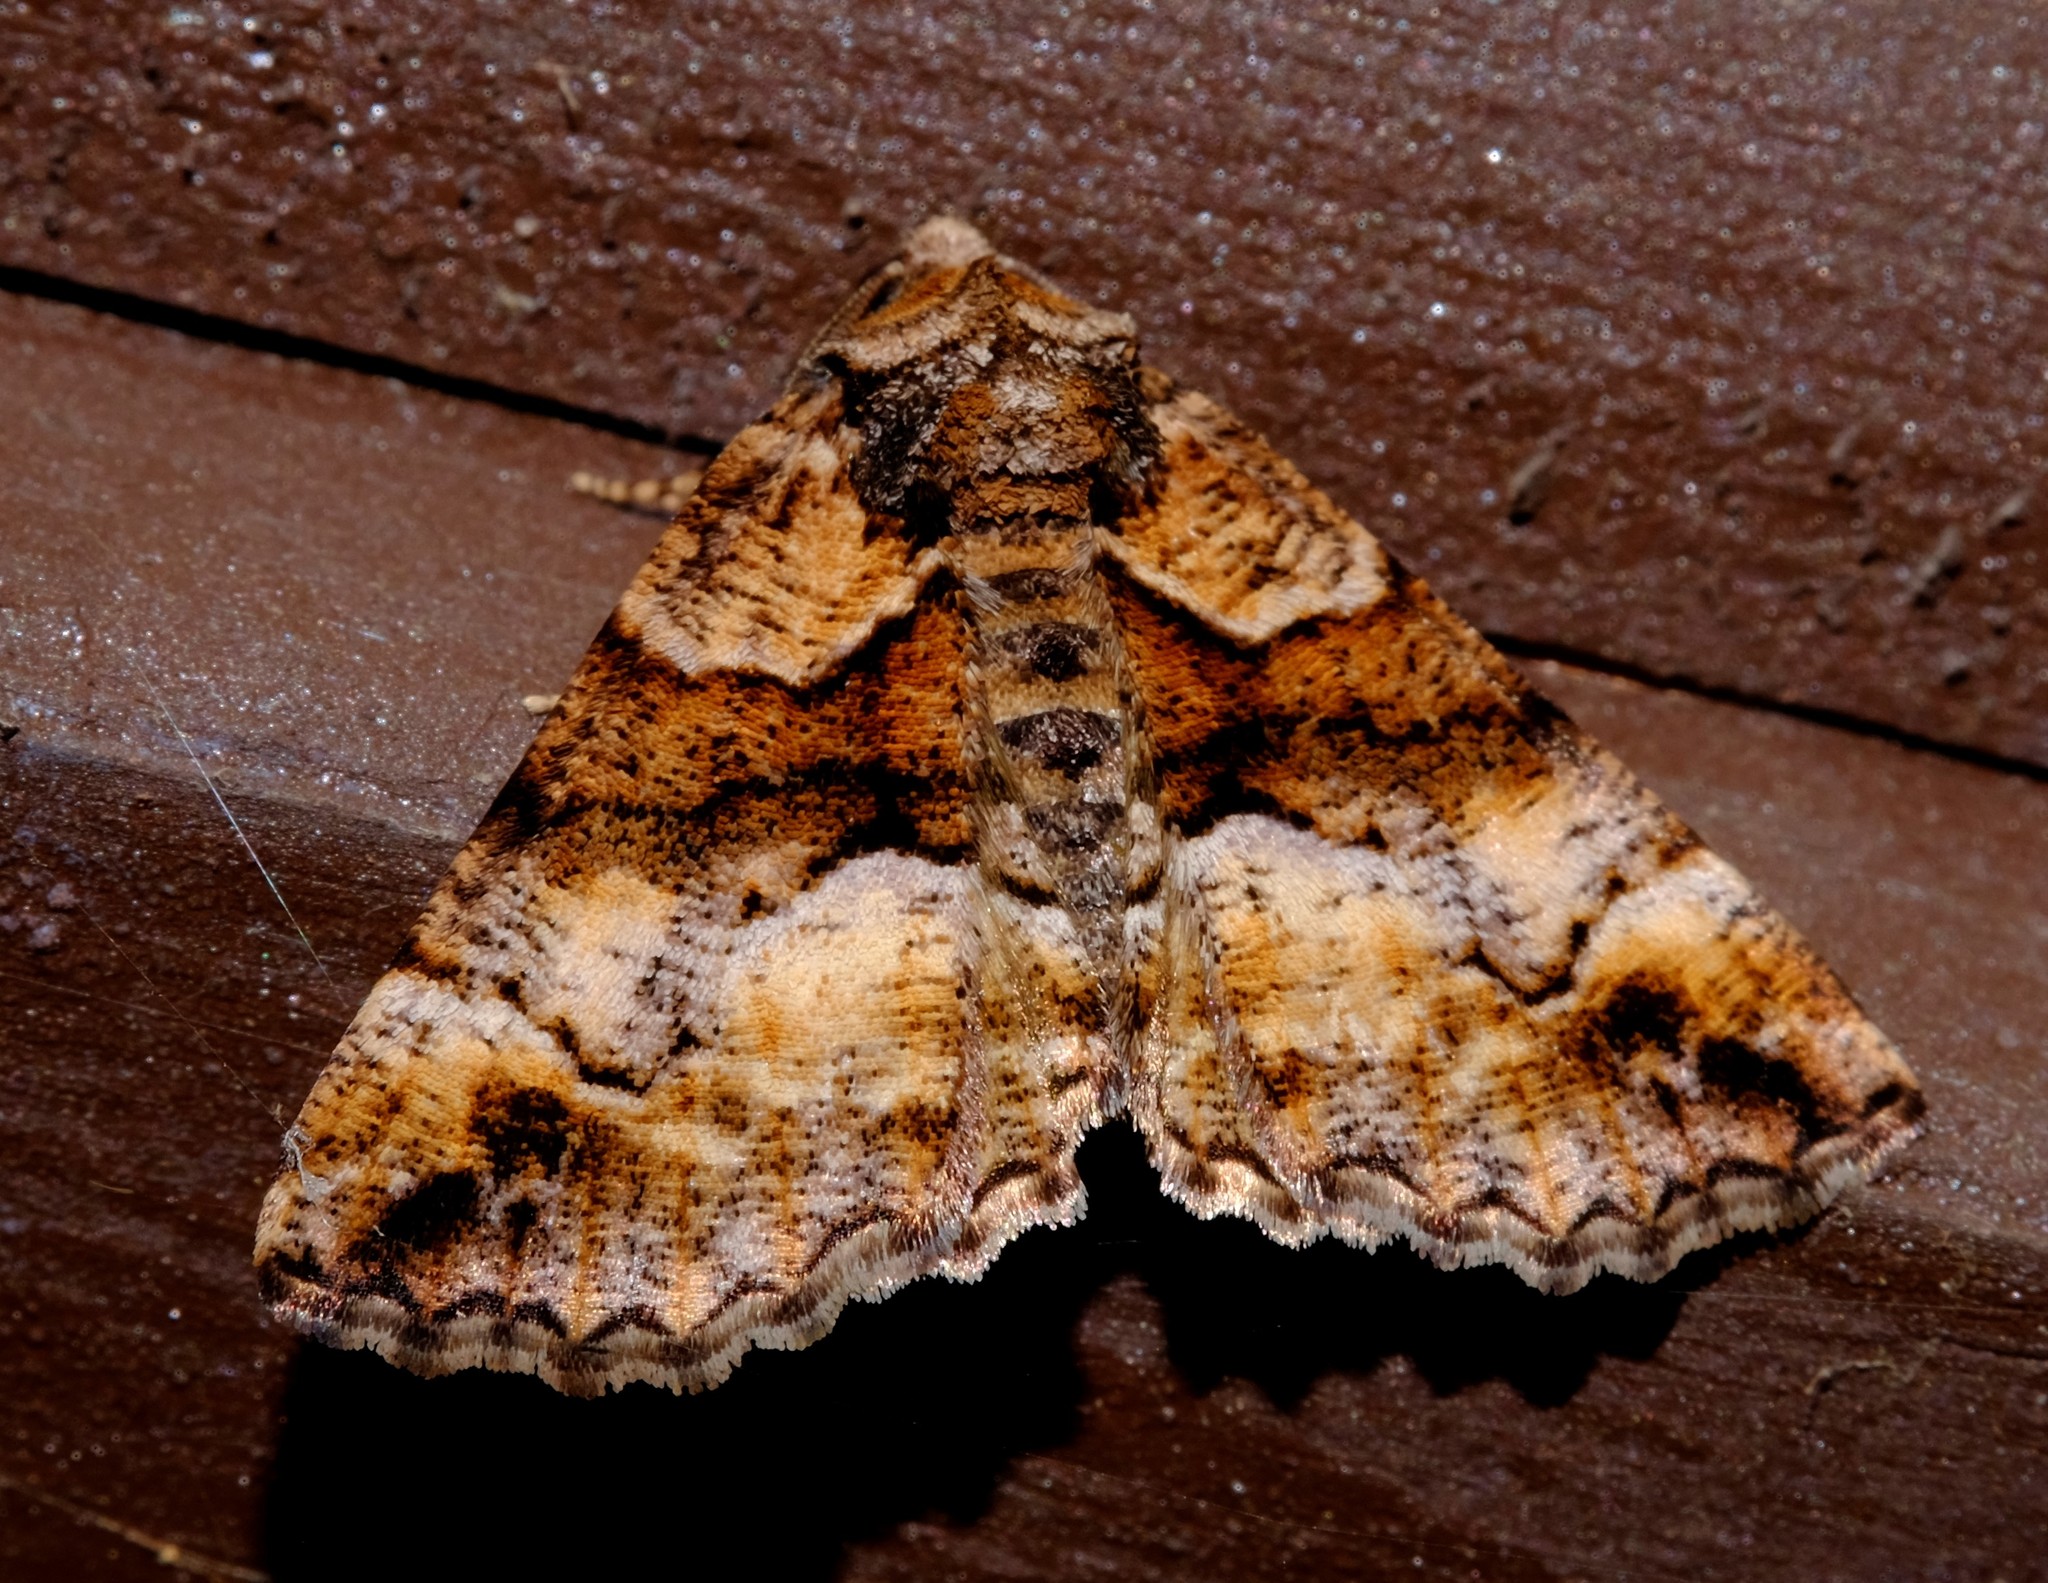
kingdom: Animalia
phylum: Arthropoda
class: Insecta
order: Lepidoptera
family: Geometridae
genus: Gastrina
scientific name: Gastrina cristaria
